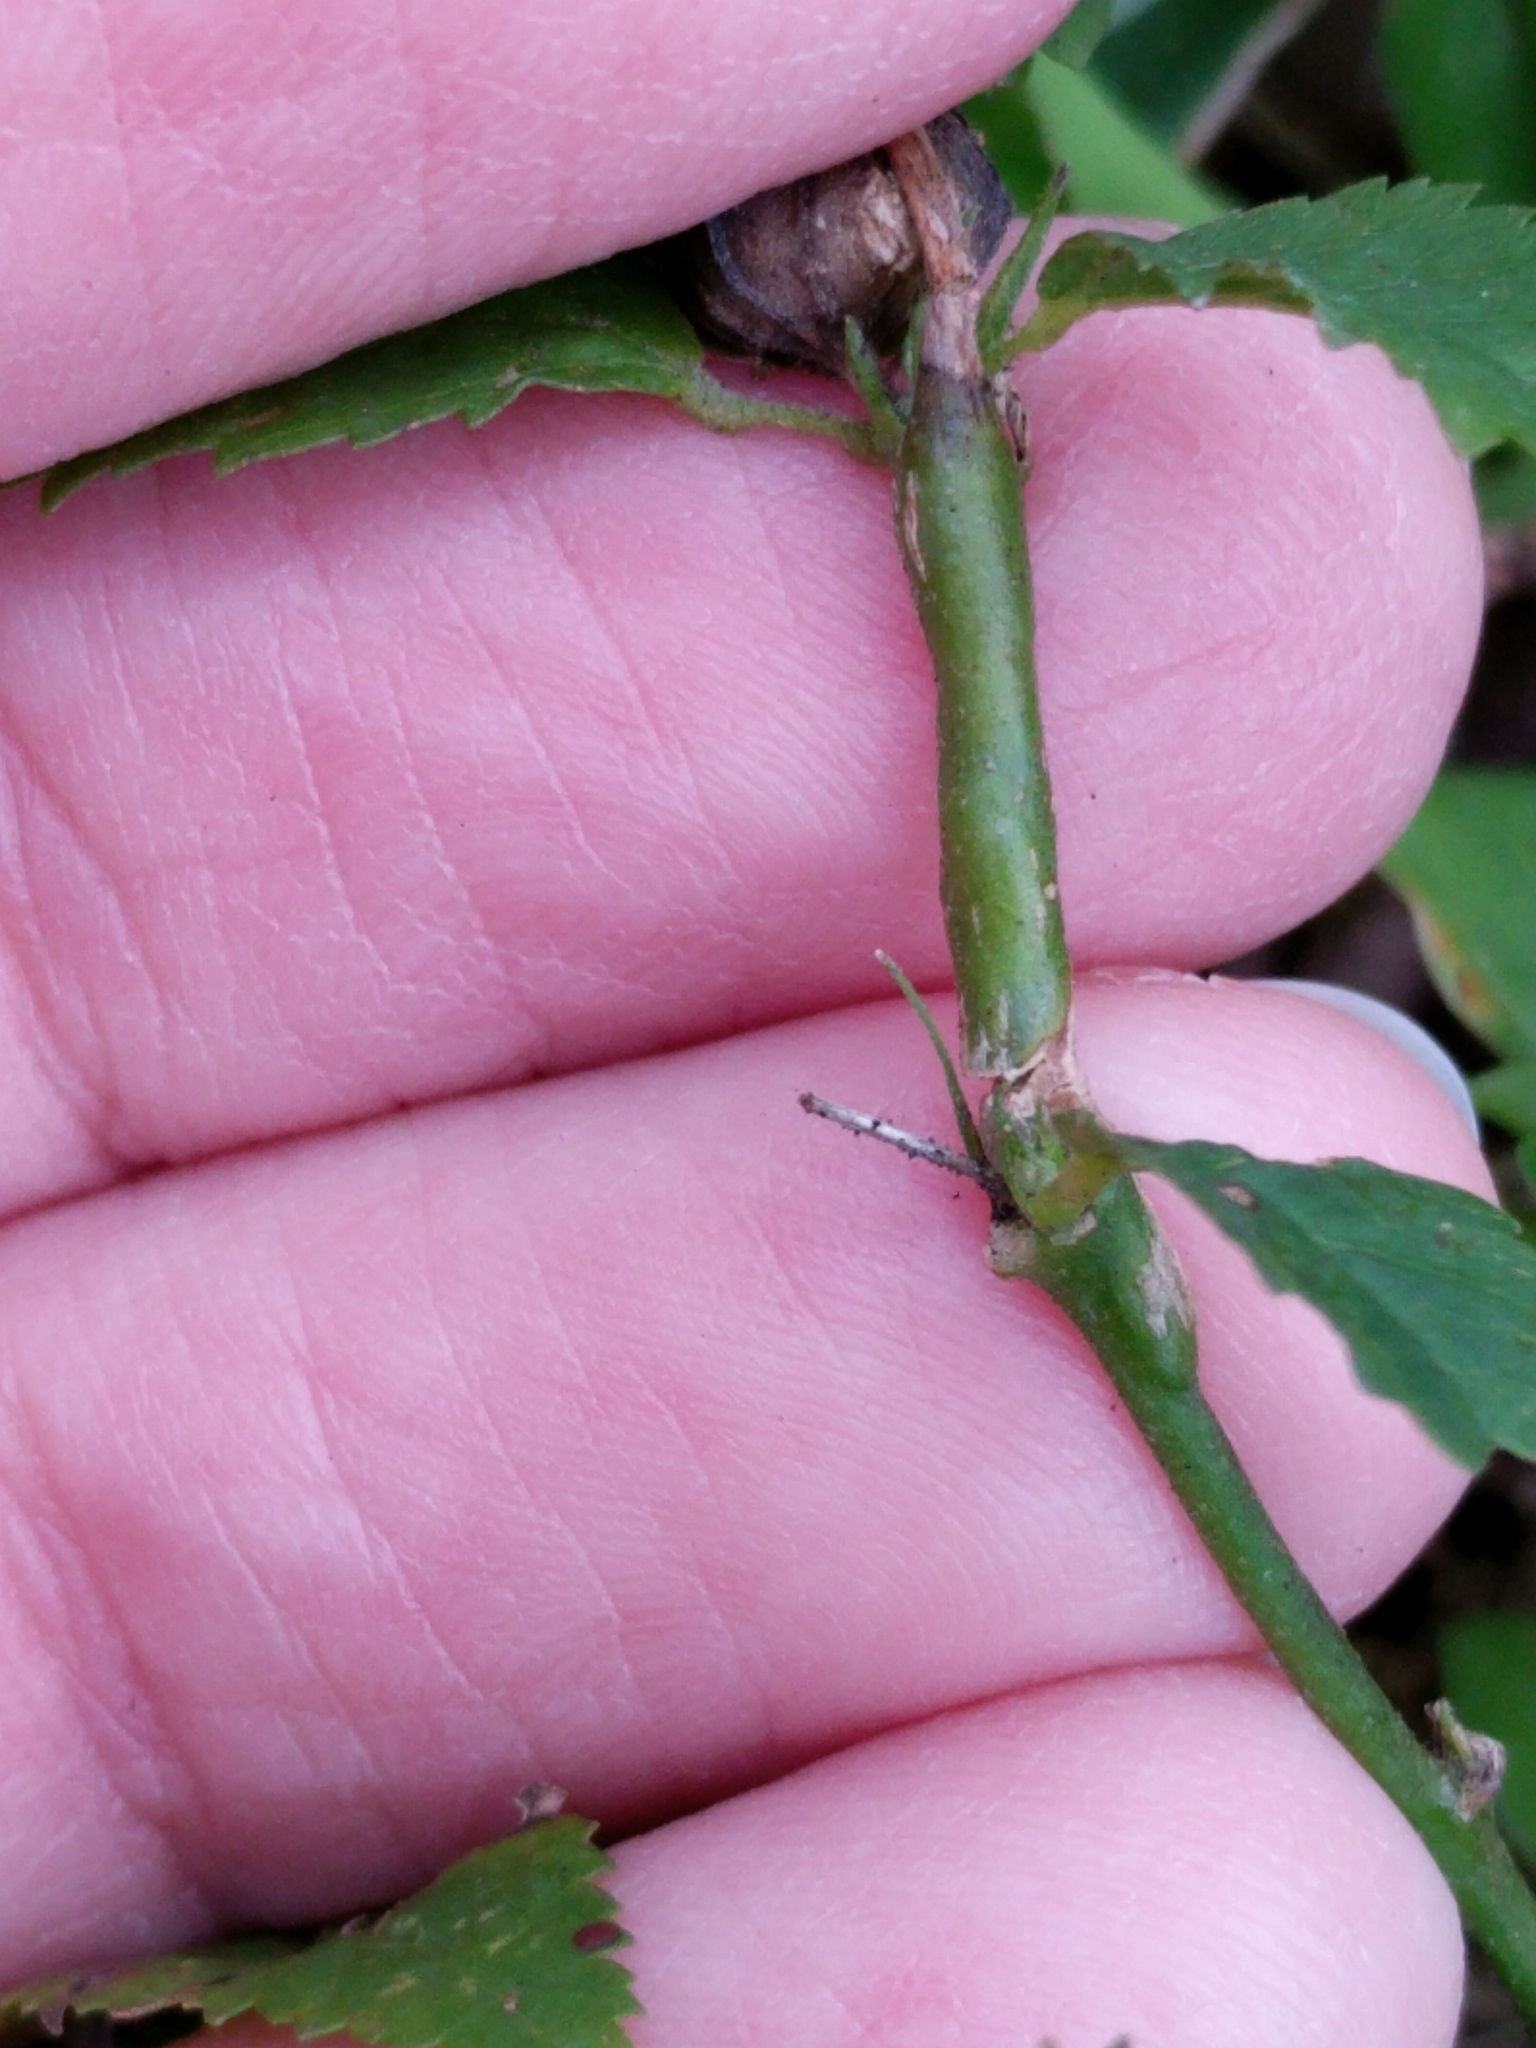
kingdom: Plantae
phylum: Tracheophyta
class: Magnoliopsida
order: Malvales
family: Malvaceae
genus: Sida
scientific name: Sida ulmifolia
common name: Broom weed
